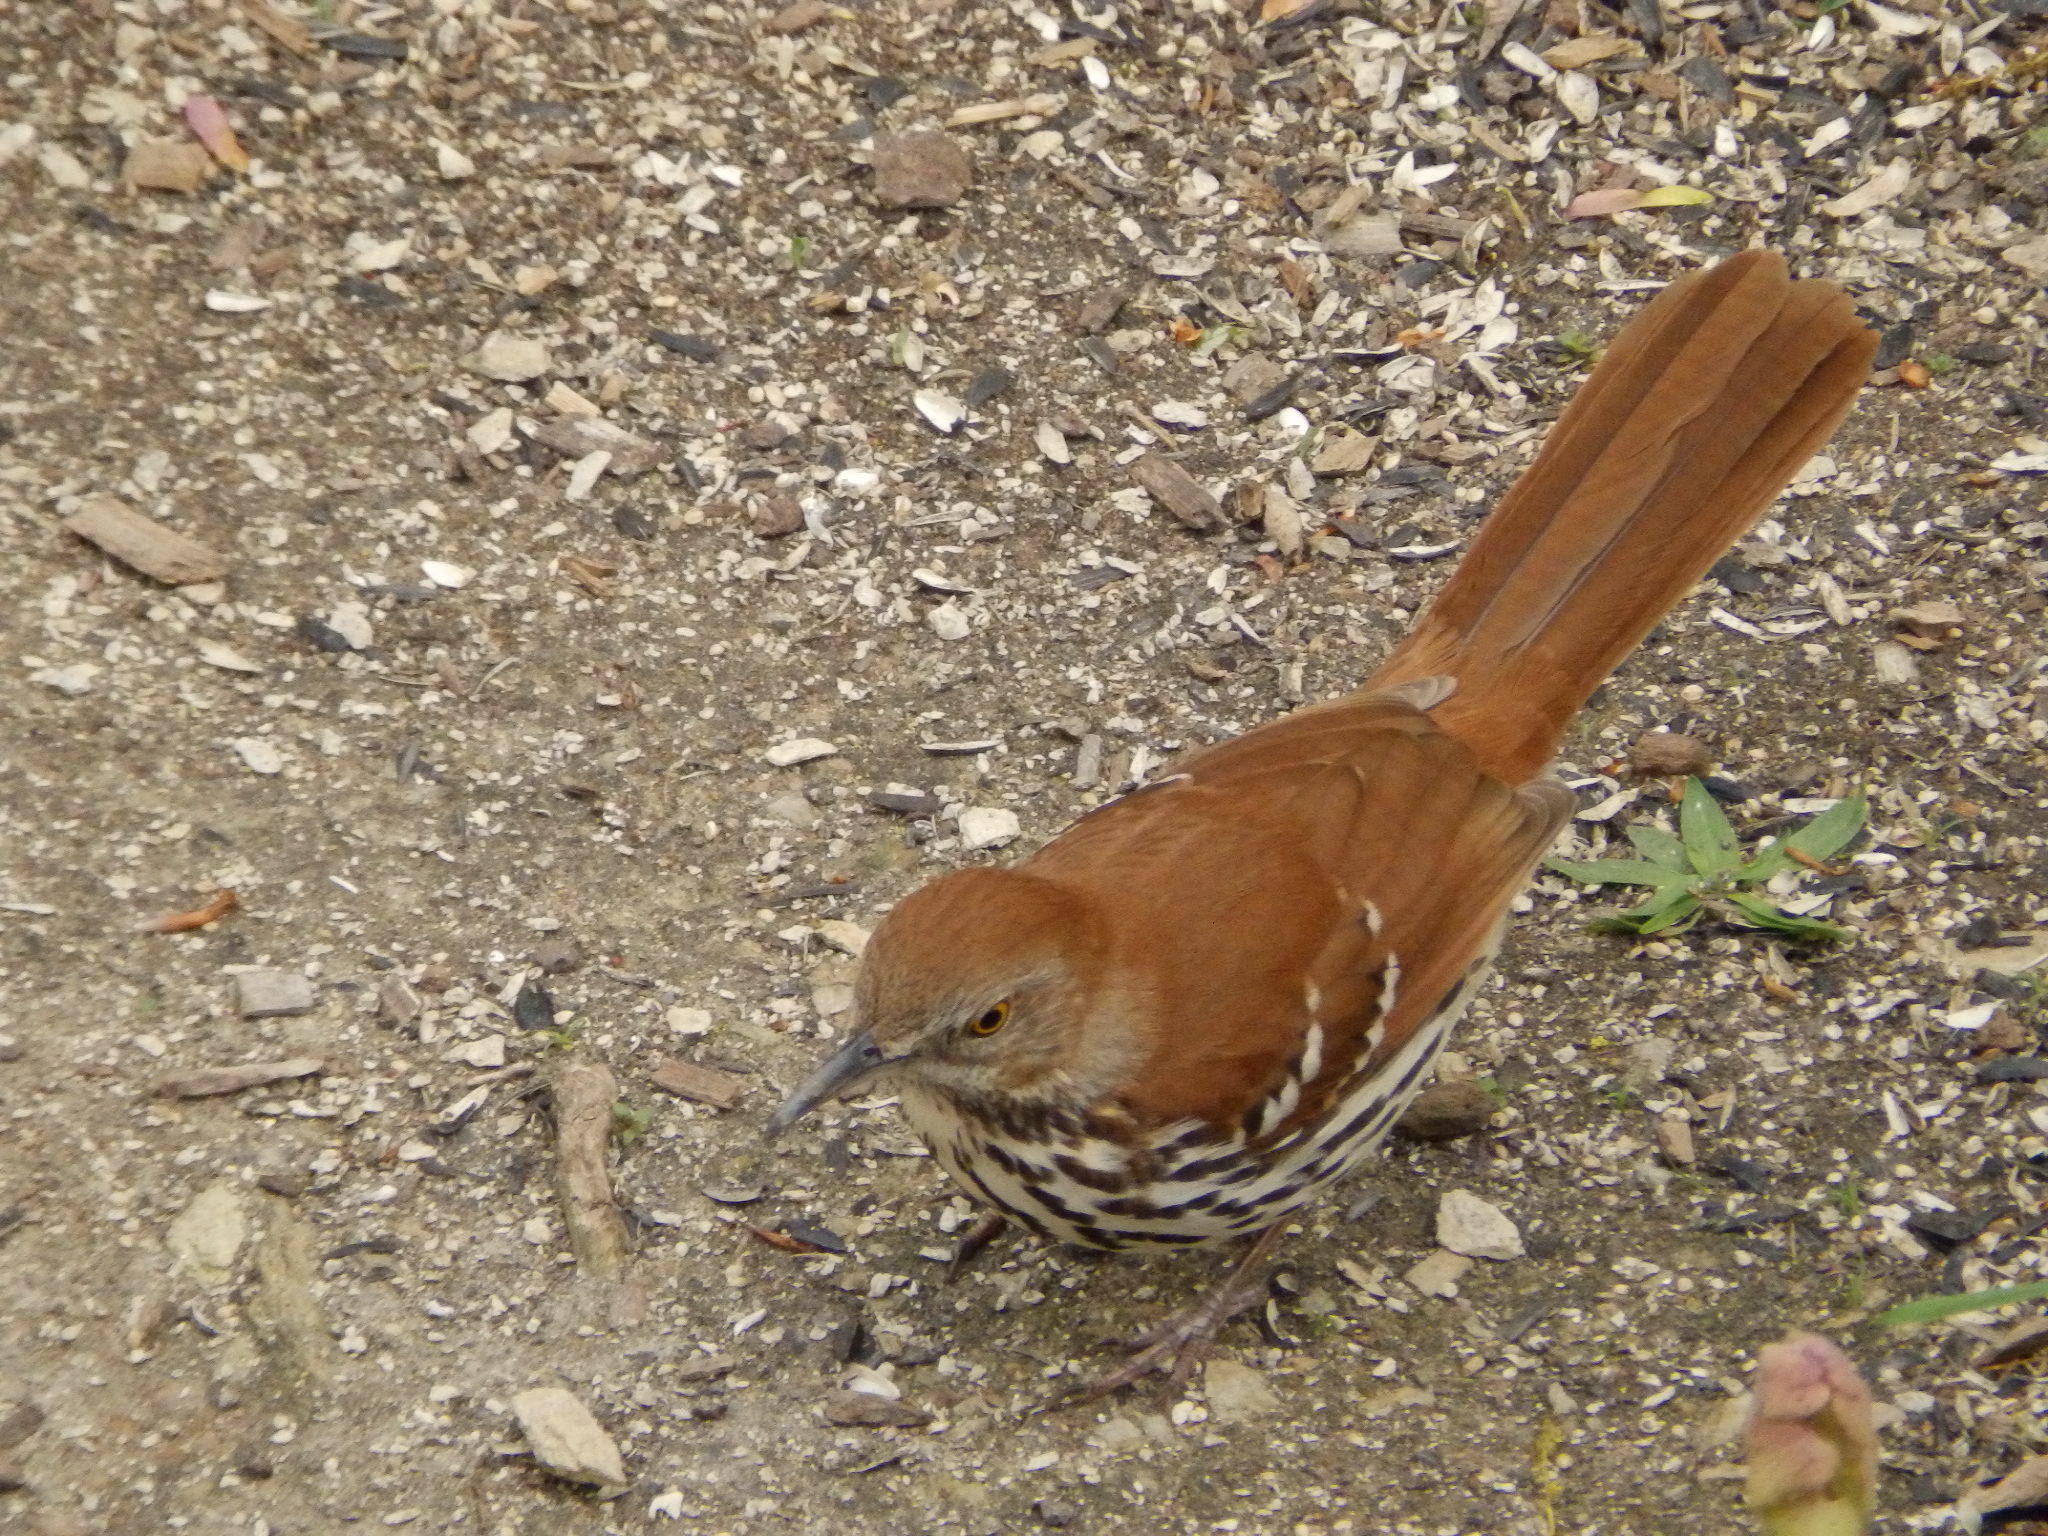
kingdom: Animalia
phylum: Chordata
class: Aves
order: Passeriformes
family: Mimidae
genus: Toxostoma
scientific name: Toxostoma rufum
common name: Brown thrasher
